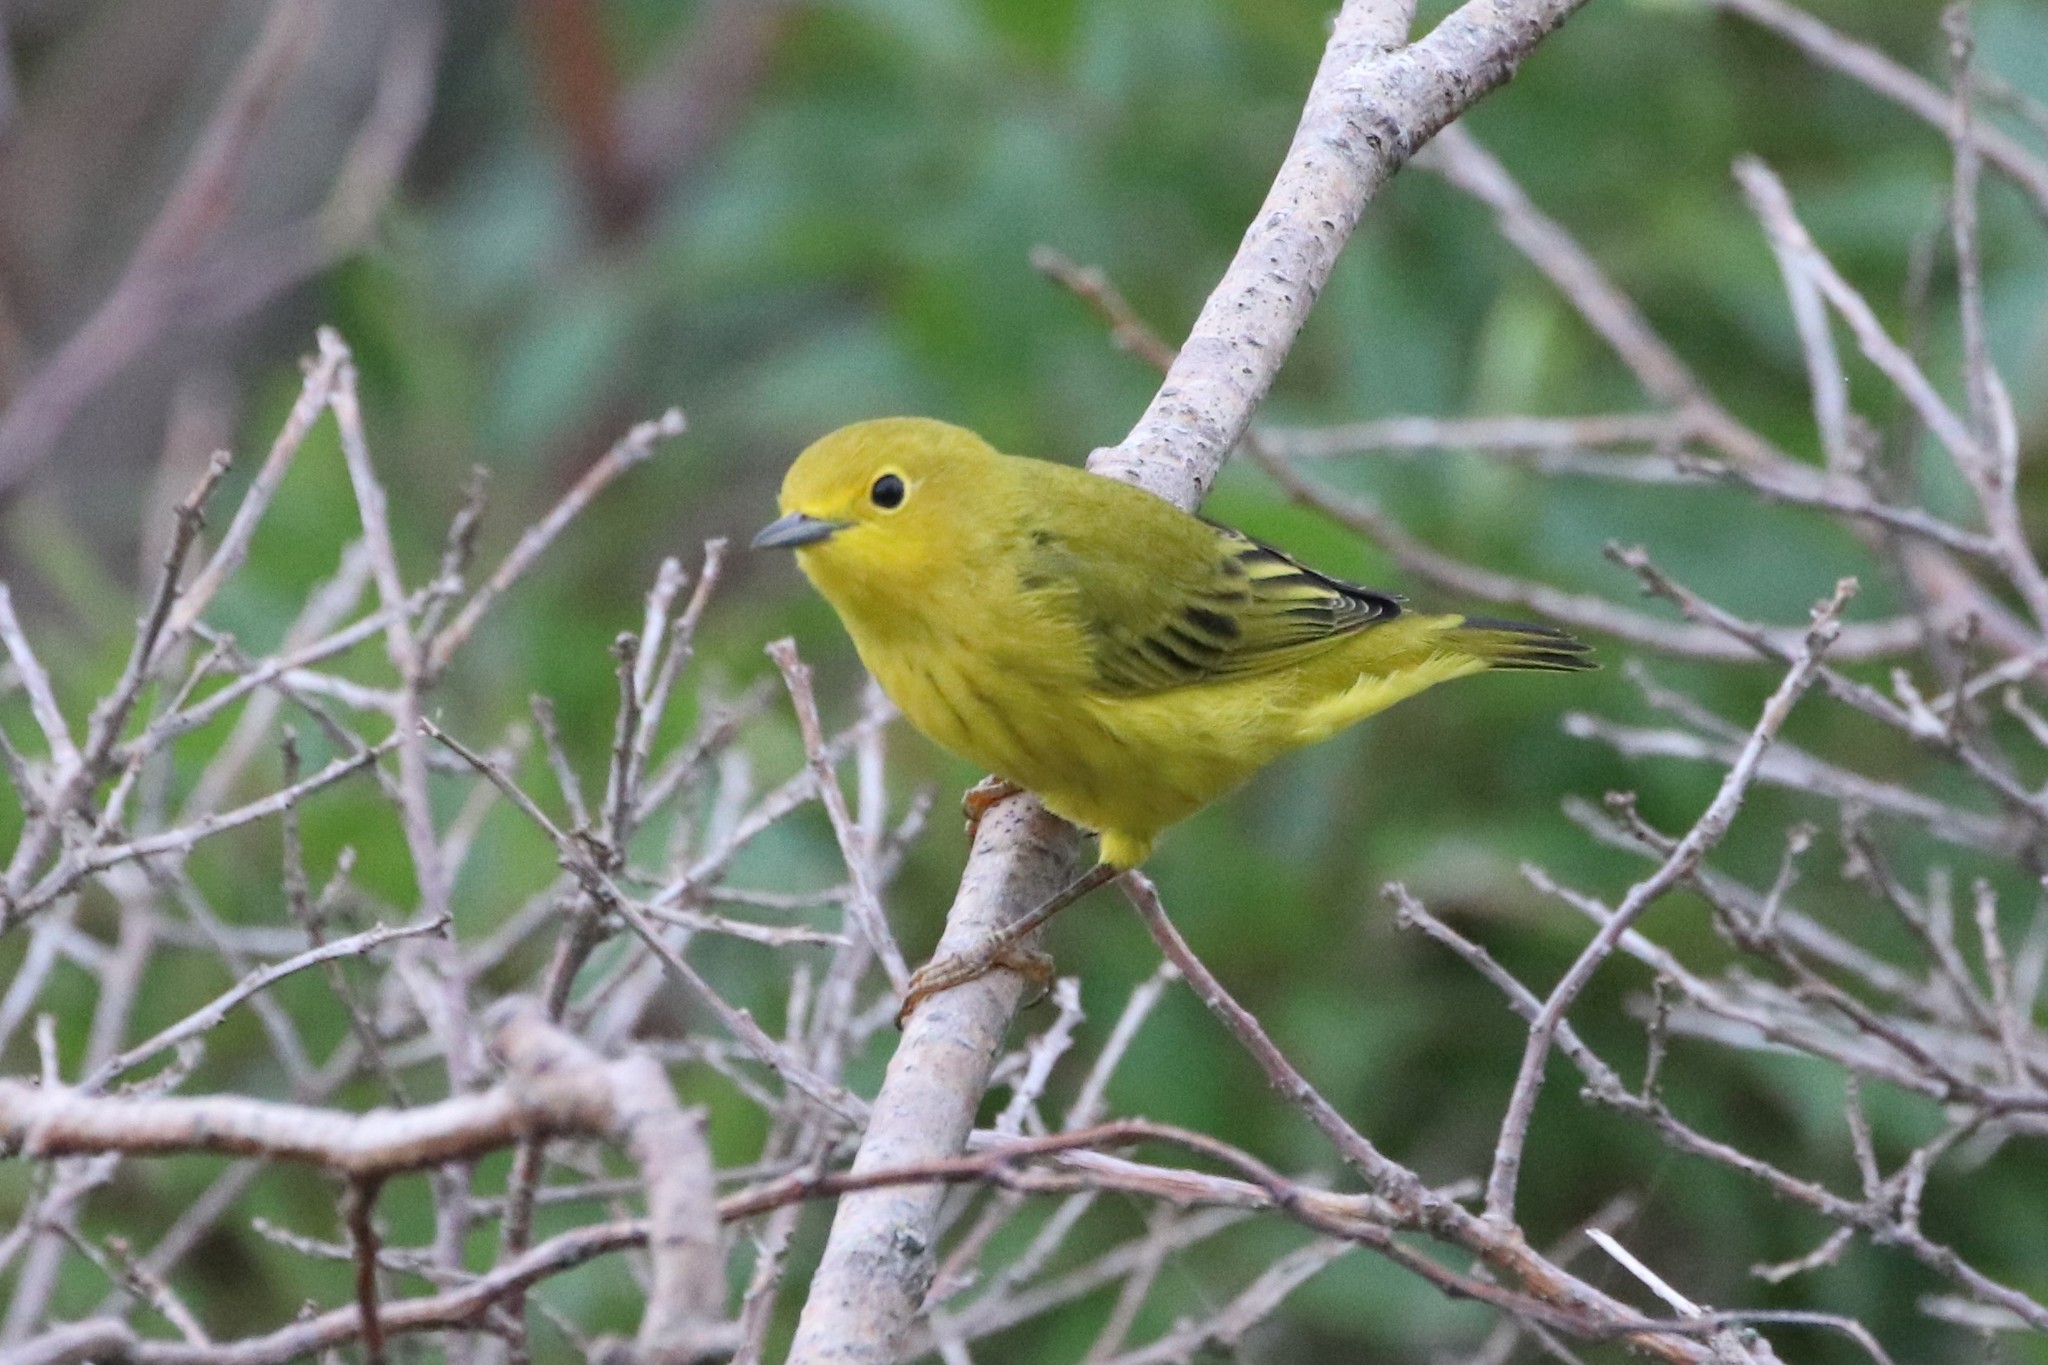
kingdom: Animalia
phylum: Chordata
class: Aves
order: Passeriformes
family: Parulidae
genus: Setophaga
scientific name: Setophaga petechia
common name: Yellow warbler
